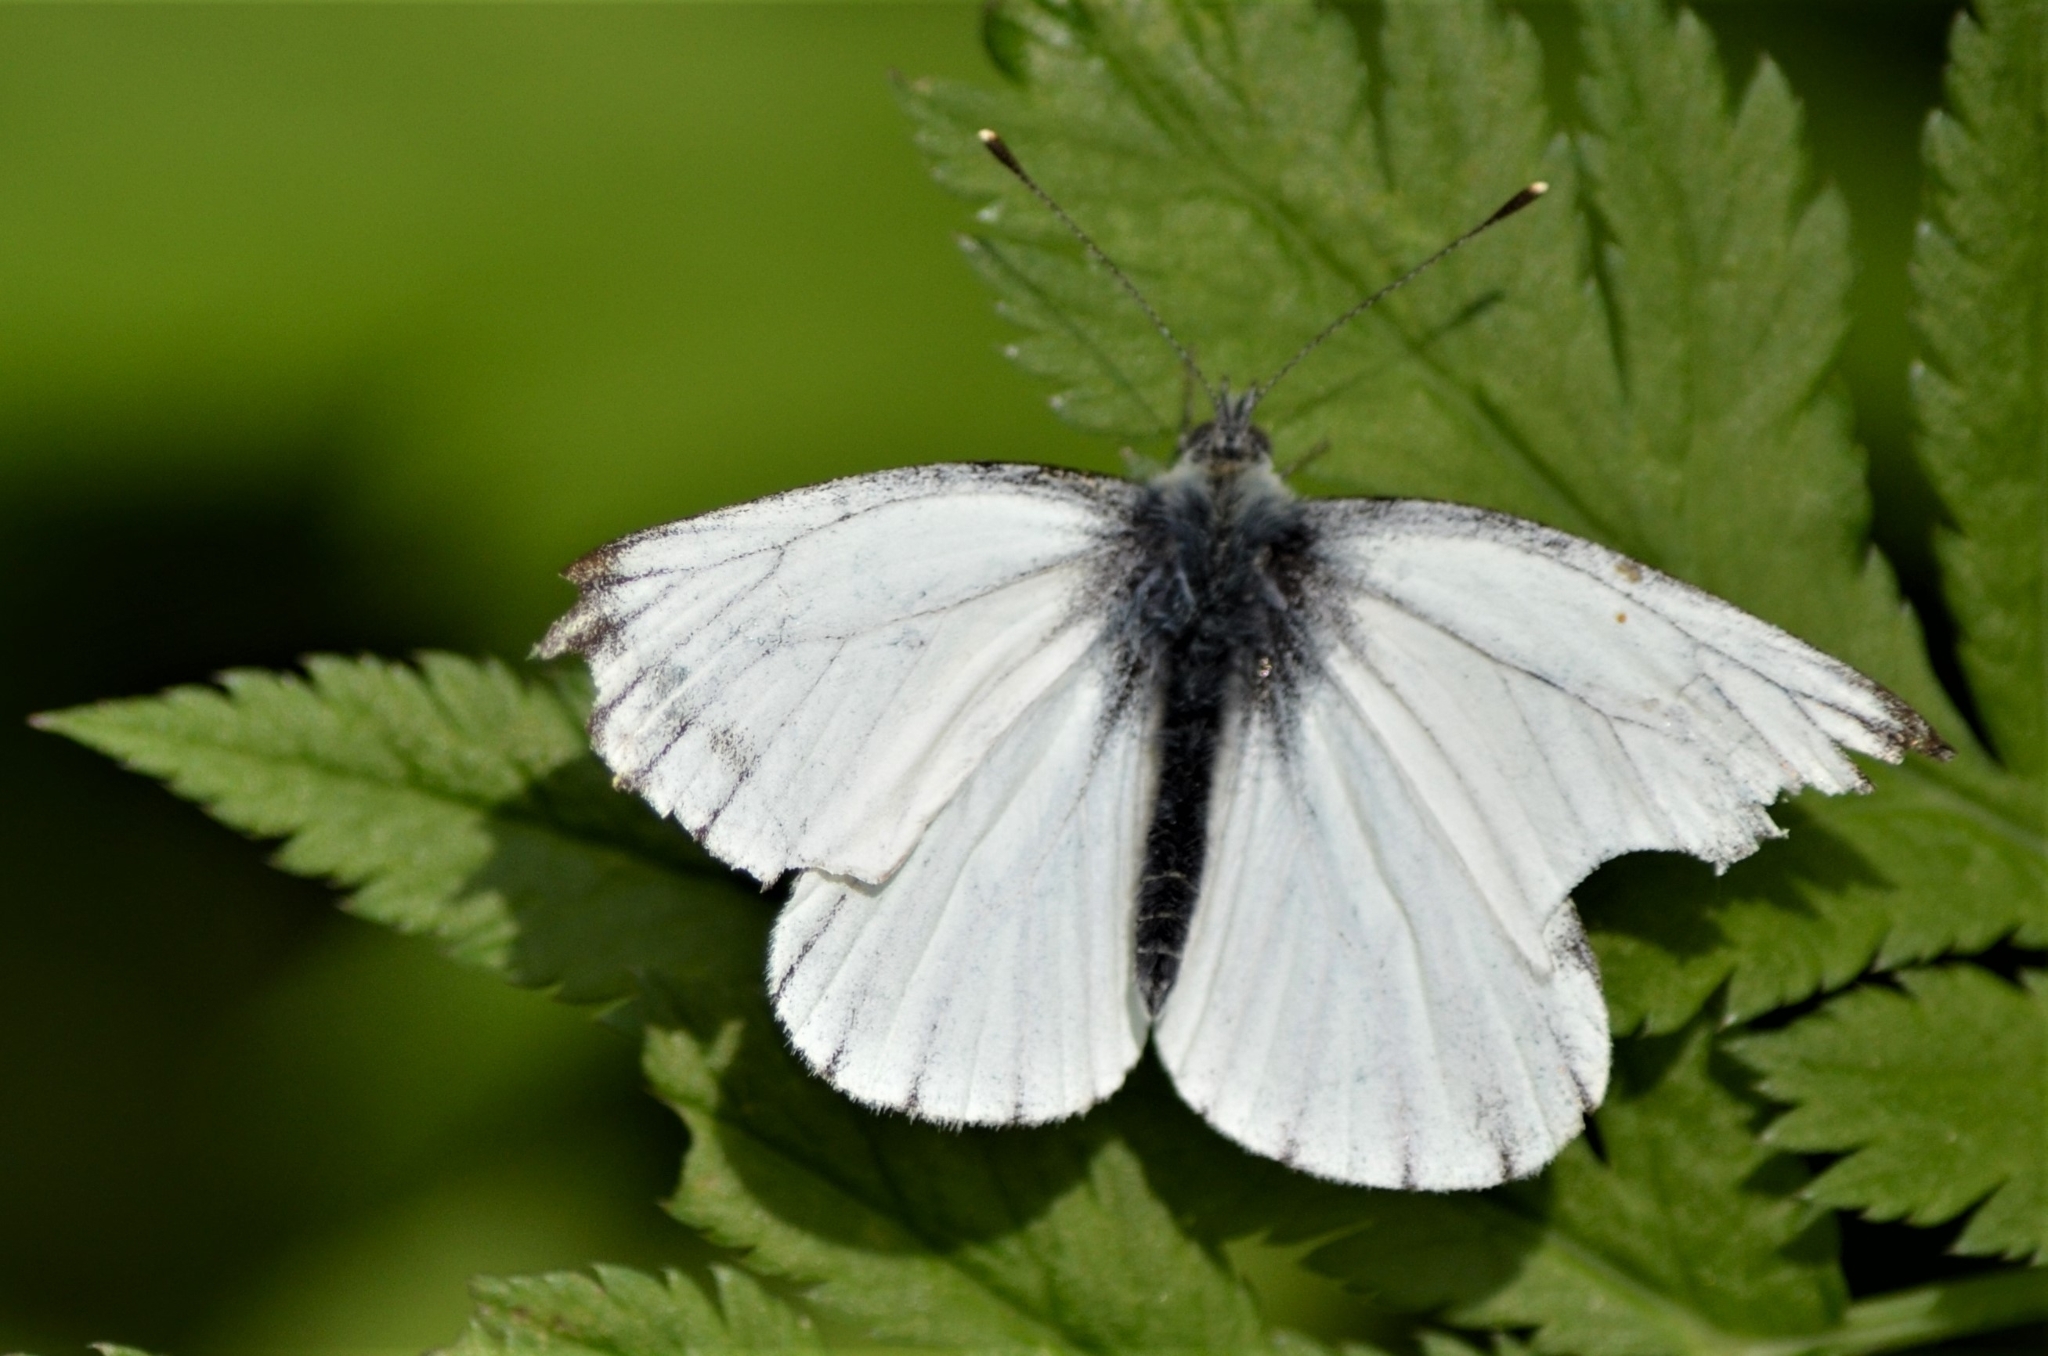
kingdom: Animalia
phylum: Arthropoda
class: Insecta
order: Lepidoptera
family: Pieridae
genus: Pieris
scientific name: Pieris napi
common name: Green-veined white
